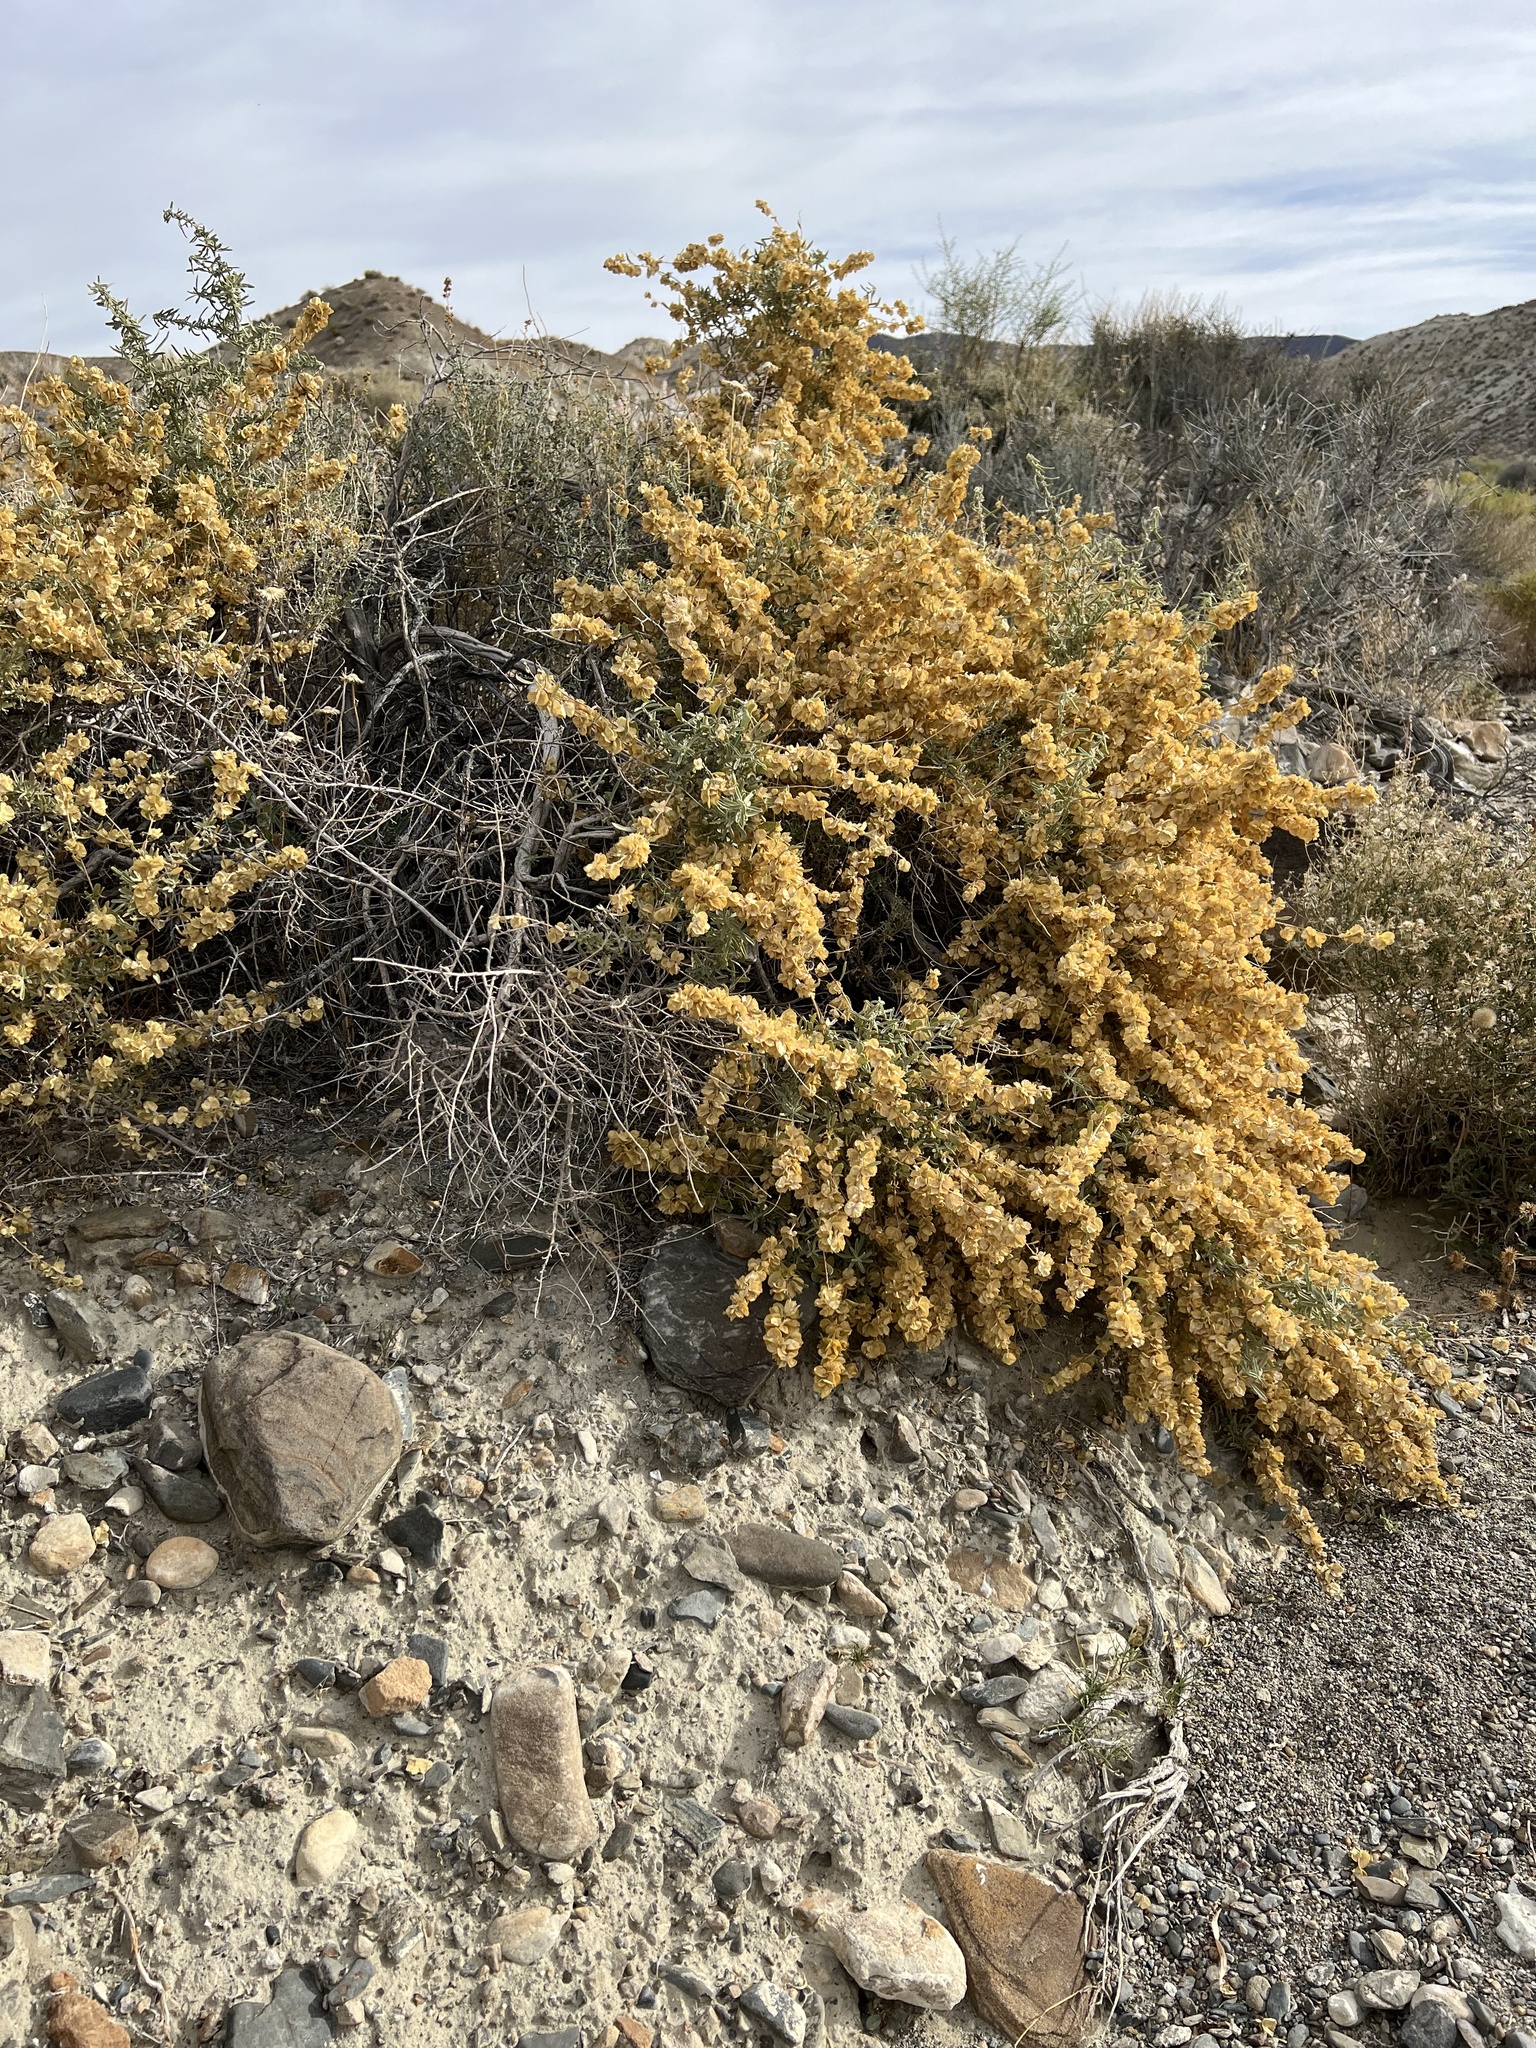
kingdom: Plantae
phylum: Tracheophyta
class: Magnoliopsida
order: Caryophyllales
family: Amaranthaceae
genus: Atriplex
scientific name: Atriplex canescens
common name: Four-wing saltbush
